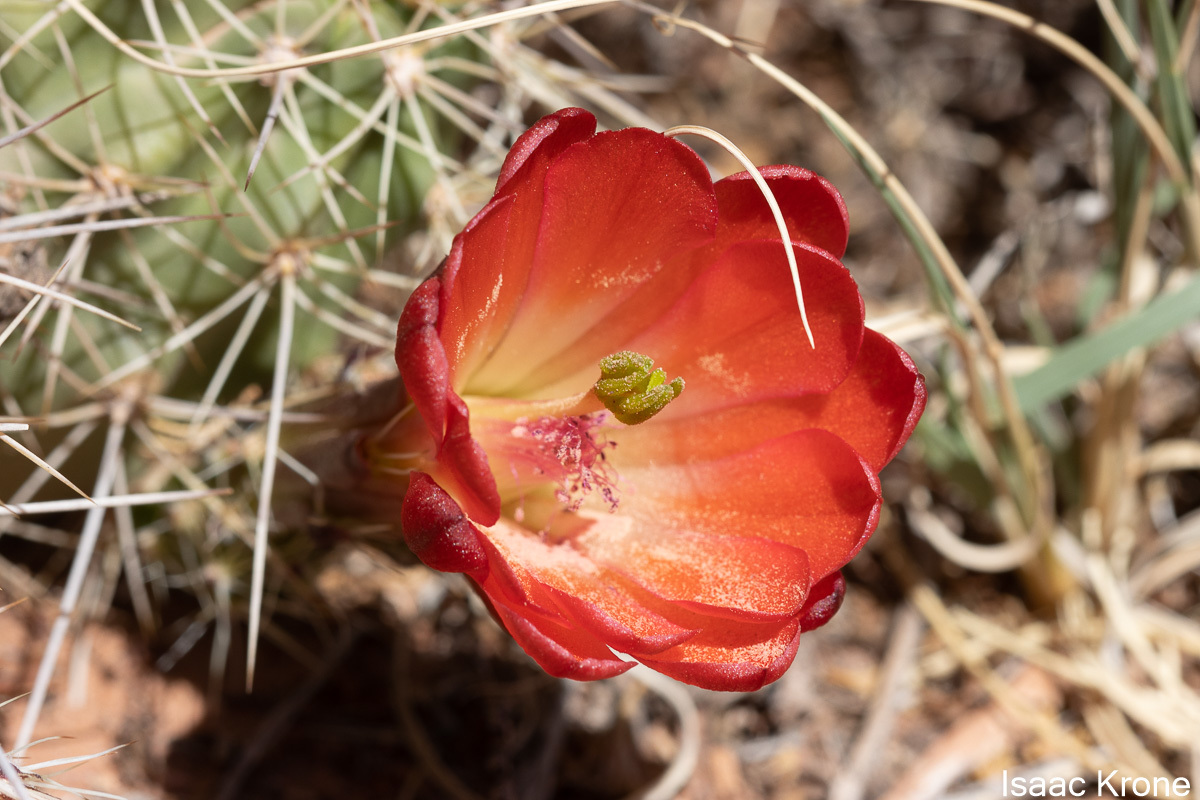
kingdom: Plantae
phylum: Tracheophyta
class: Magnoliopsida
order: Caryophyllales
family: Cactaceae
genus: Echinocereus
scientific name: Echinocereus triglochidiatus
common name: Claretcup hedgehog
